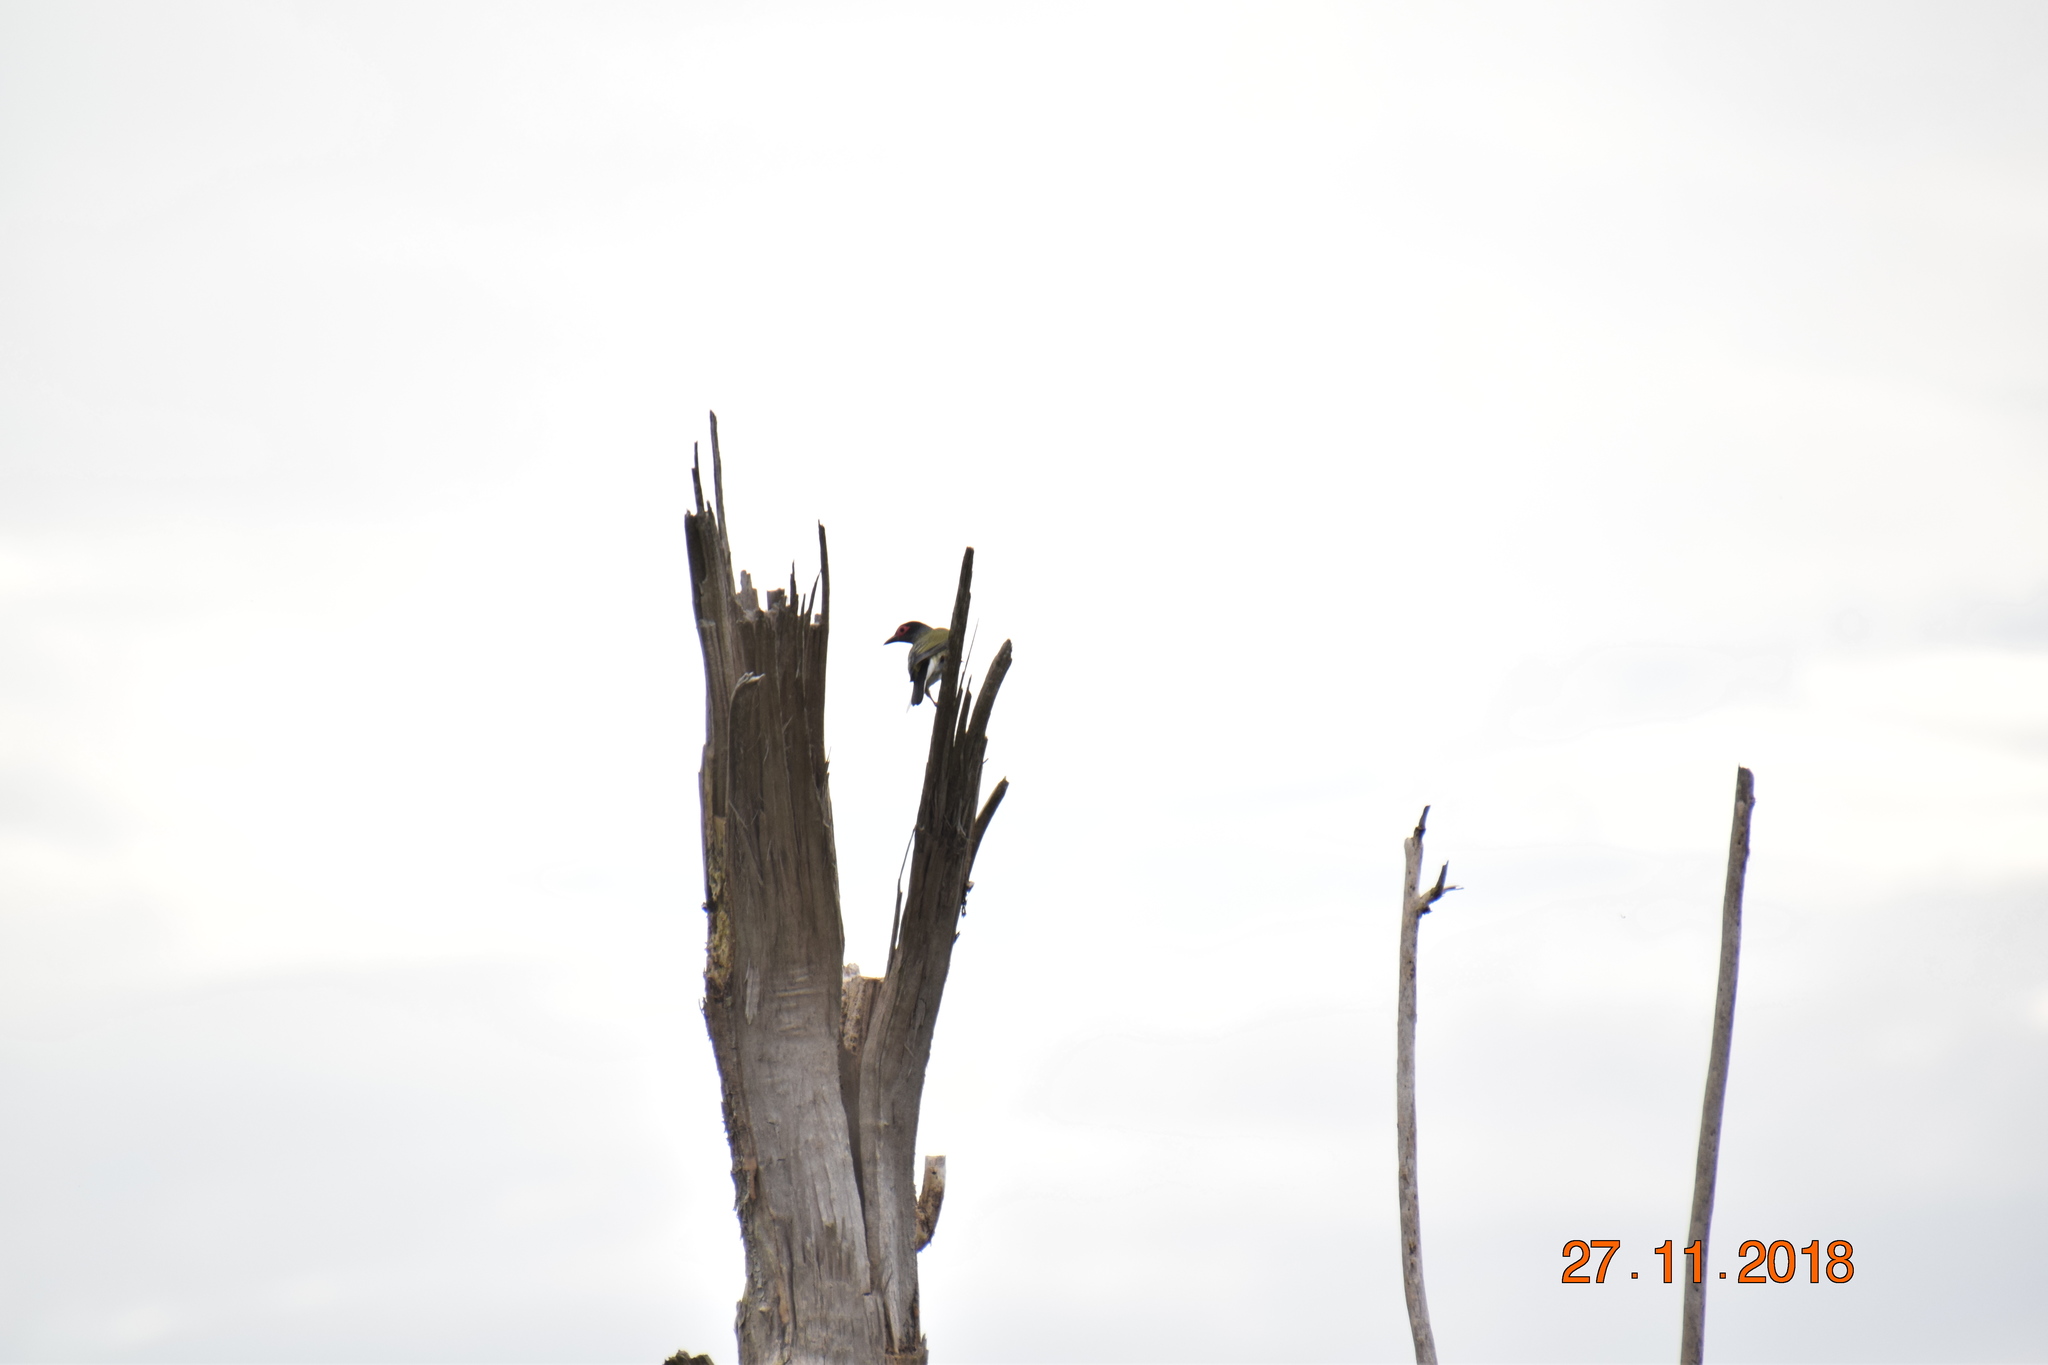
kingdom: Animalia
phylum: Chordata
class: Aves
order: Passeriformes
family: Oriolidae
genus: Sphecotheres
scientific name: Sphecotheres vieilloti
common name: Australasian figbird
